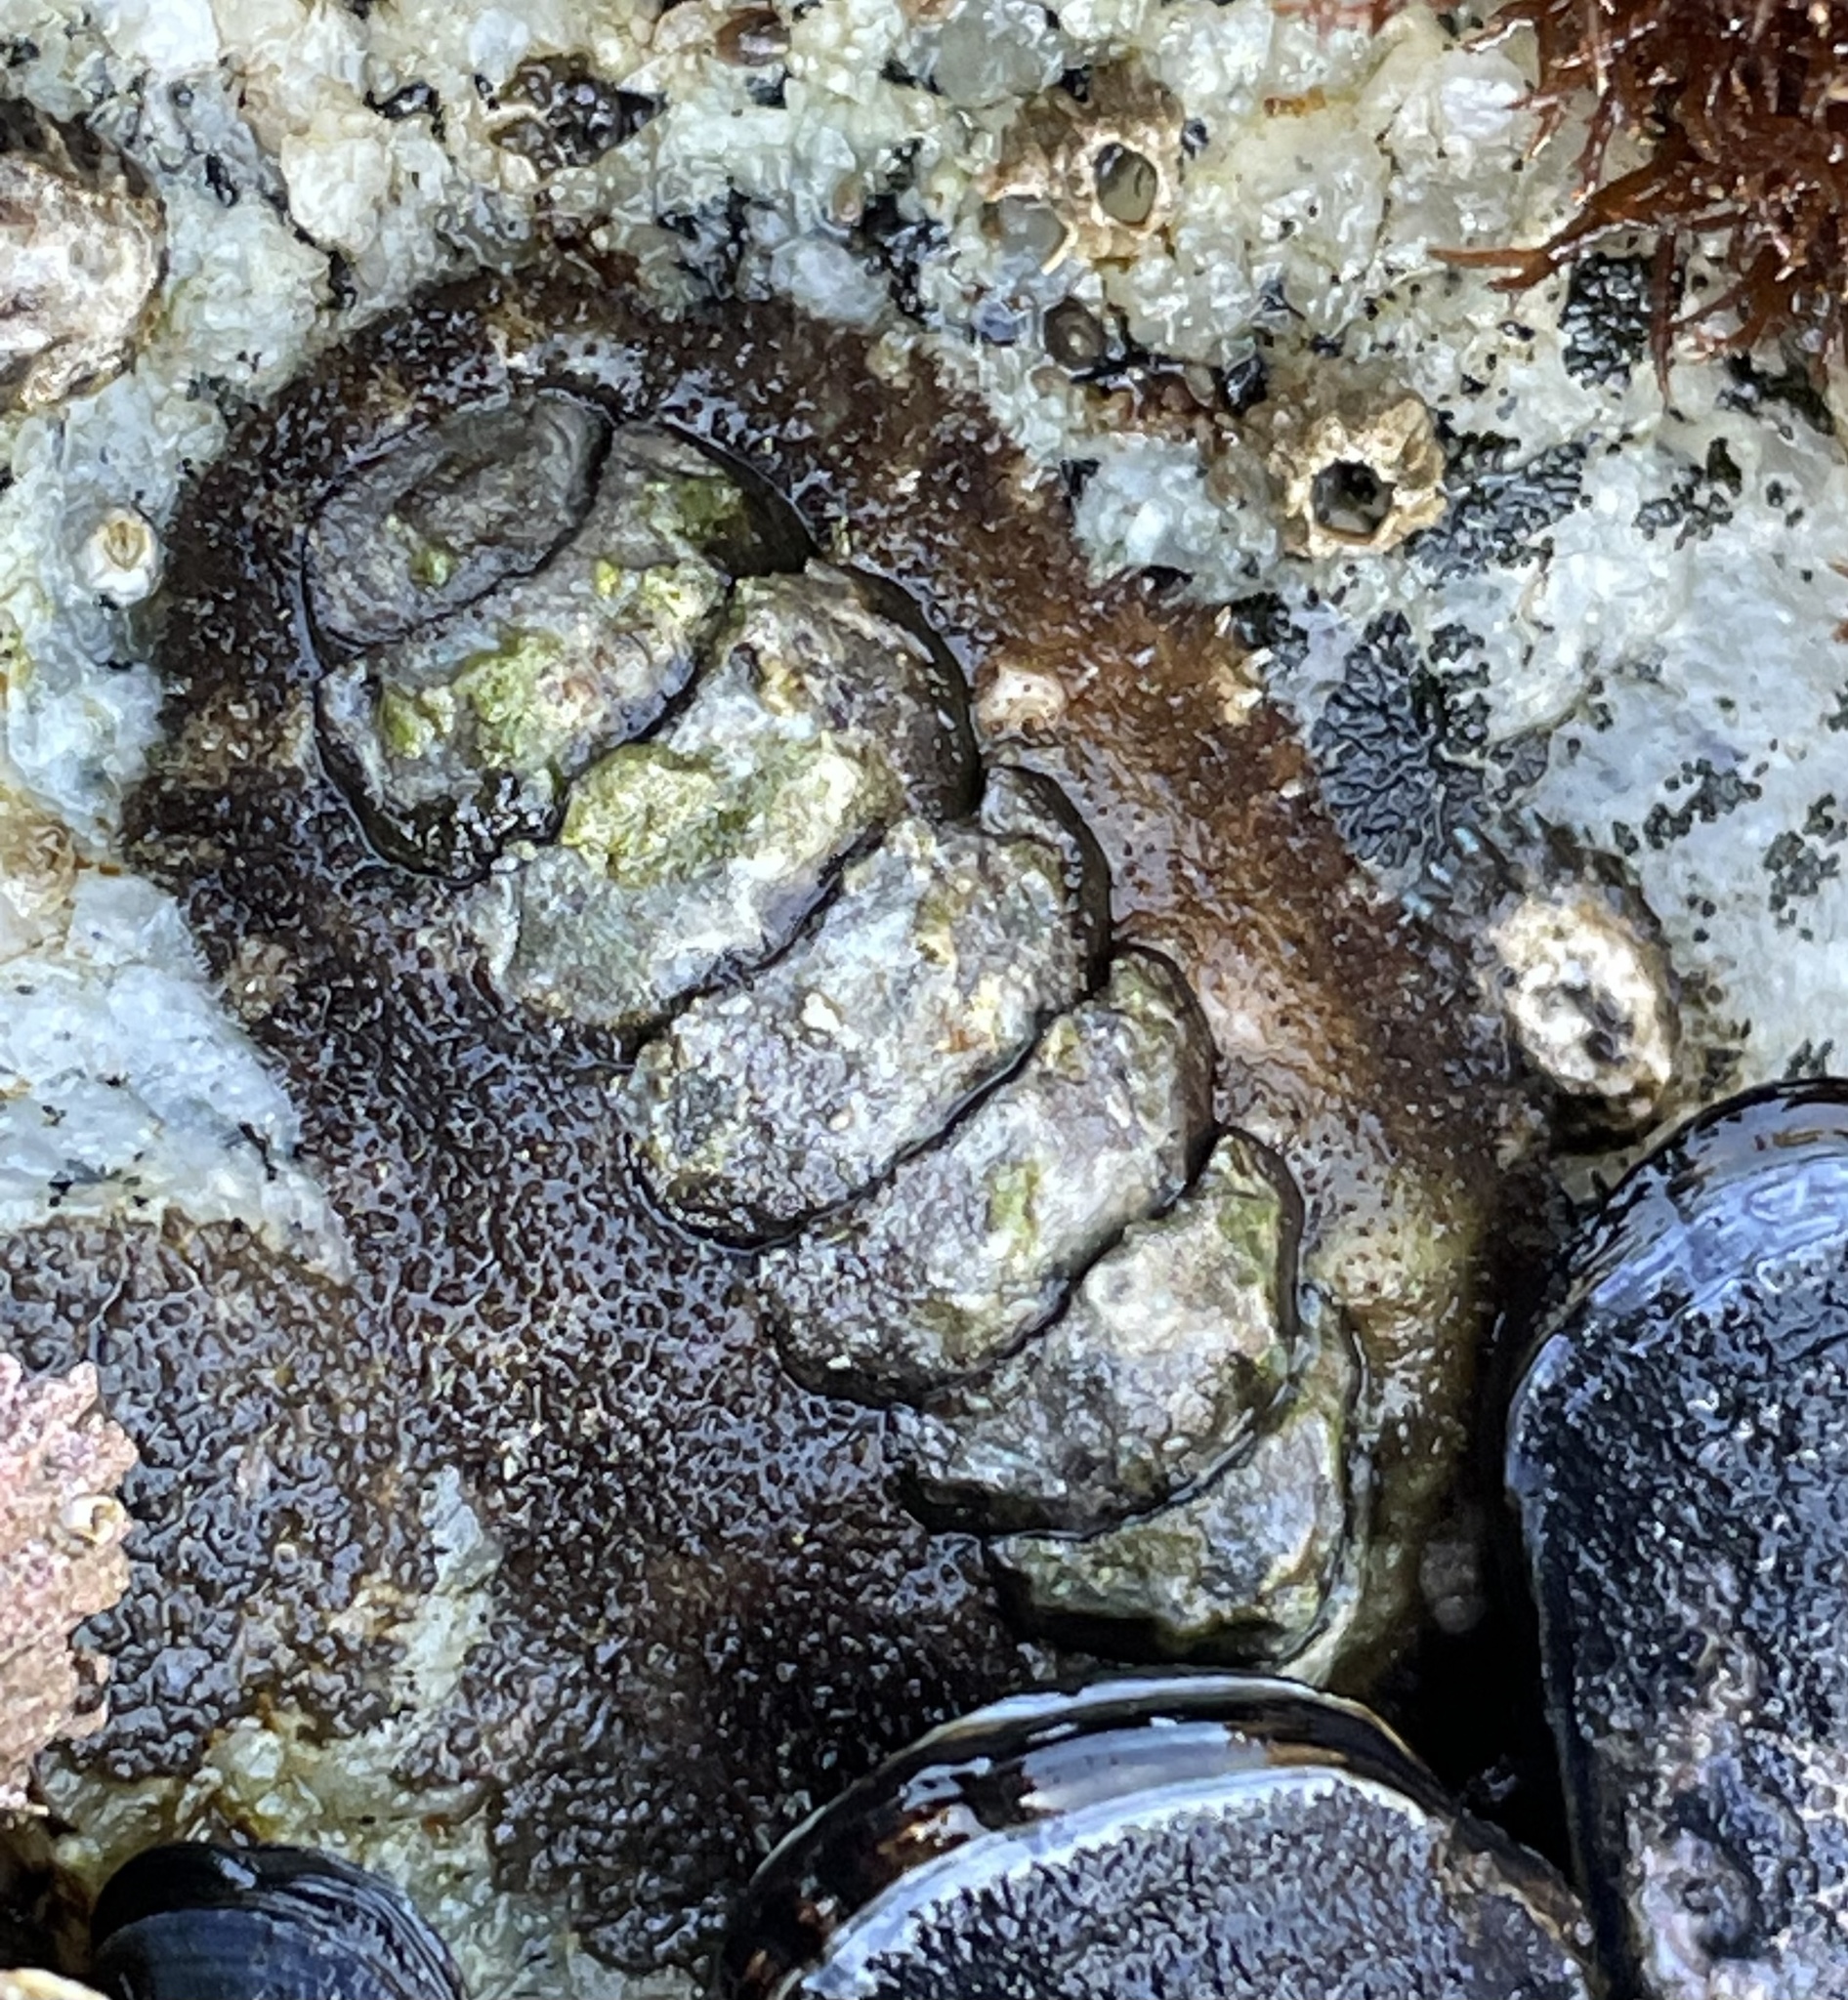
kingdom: Animalia
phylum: Mollusca
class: Polyplacophora
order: Chitonida
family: Tonicellidae
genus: Nuttallina
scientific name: Nuttallina californica
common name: California nuttall chiton
